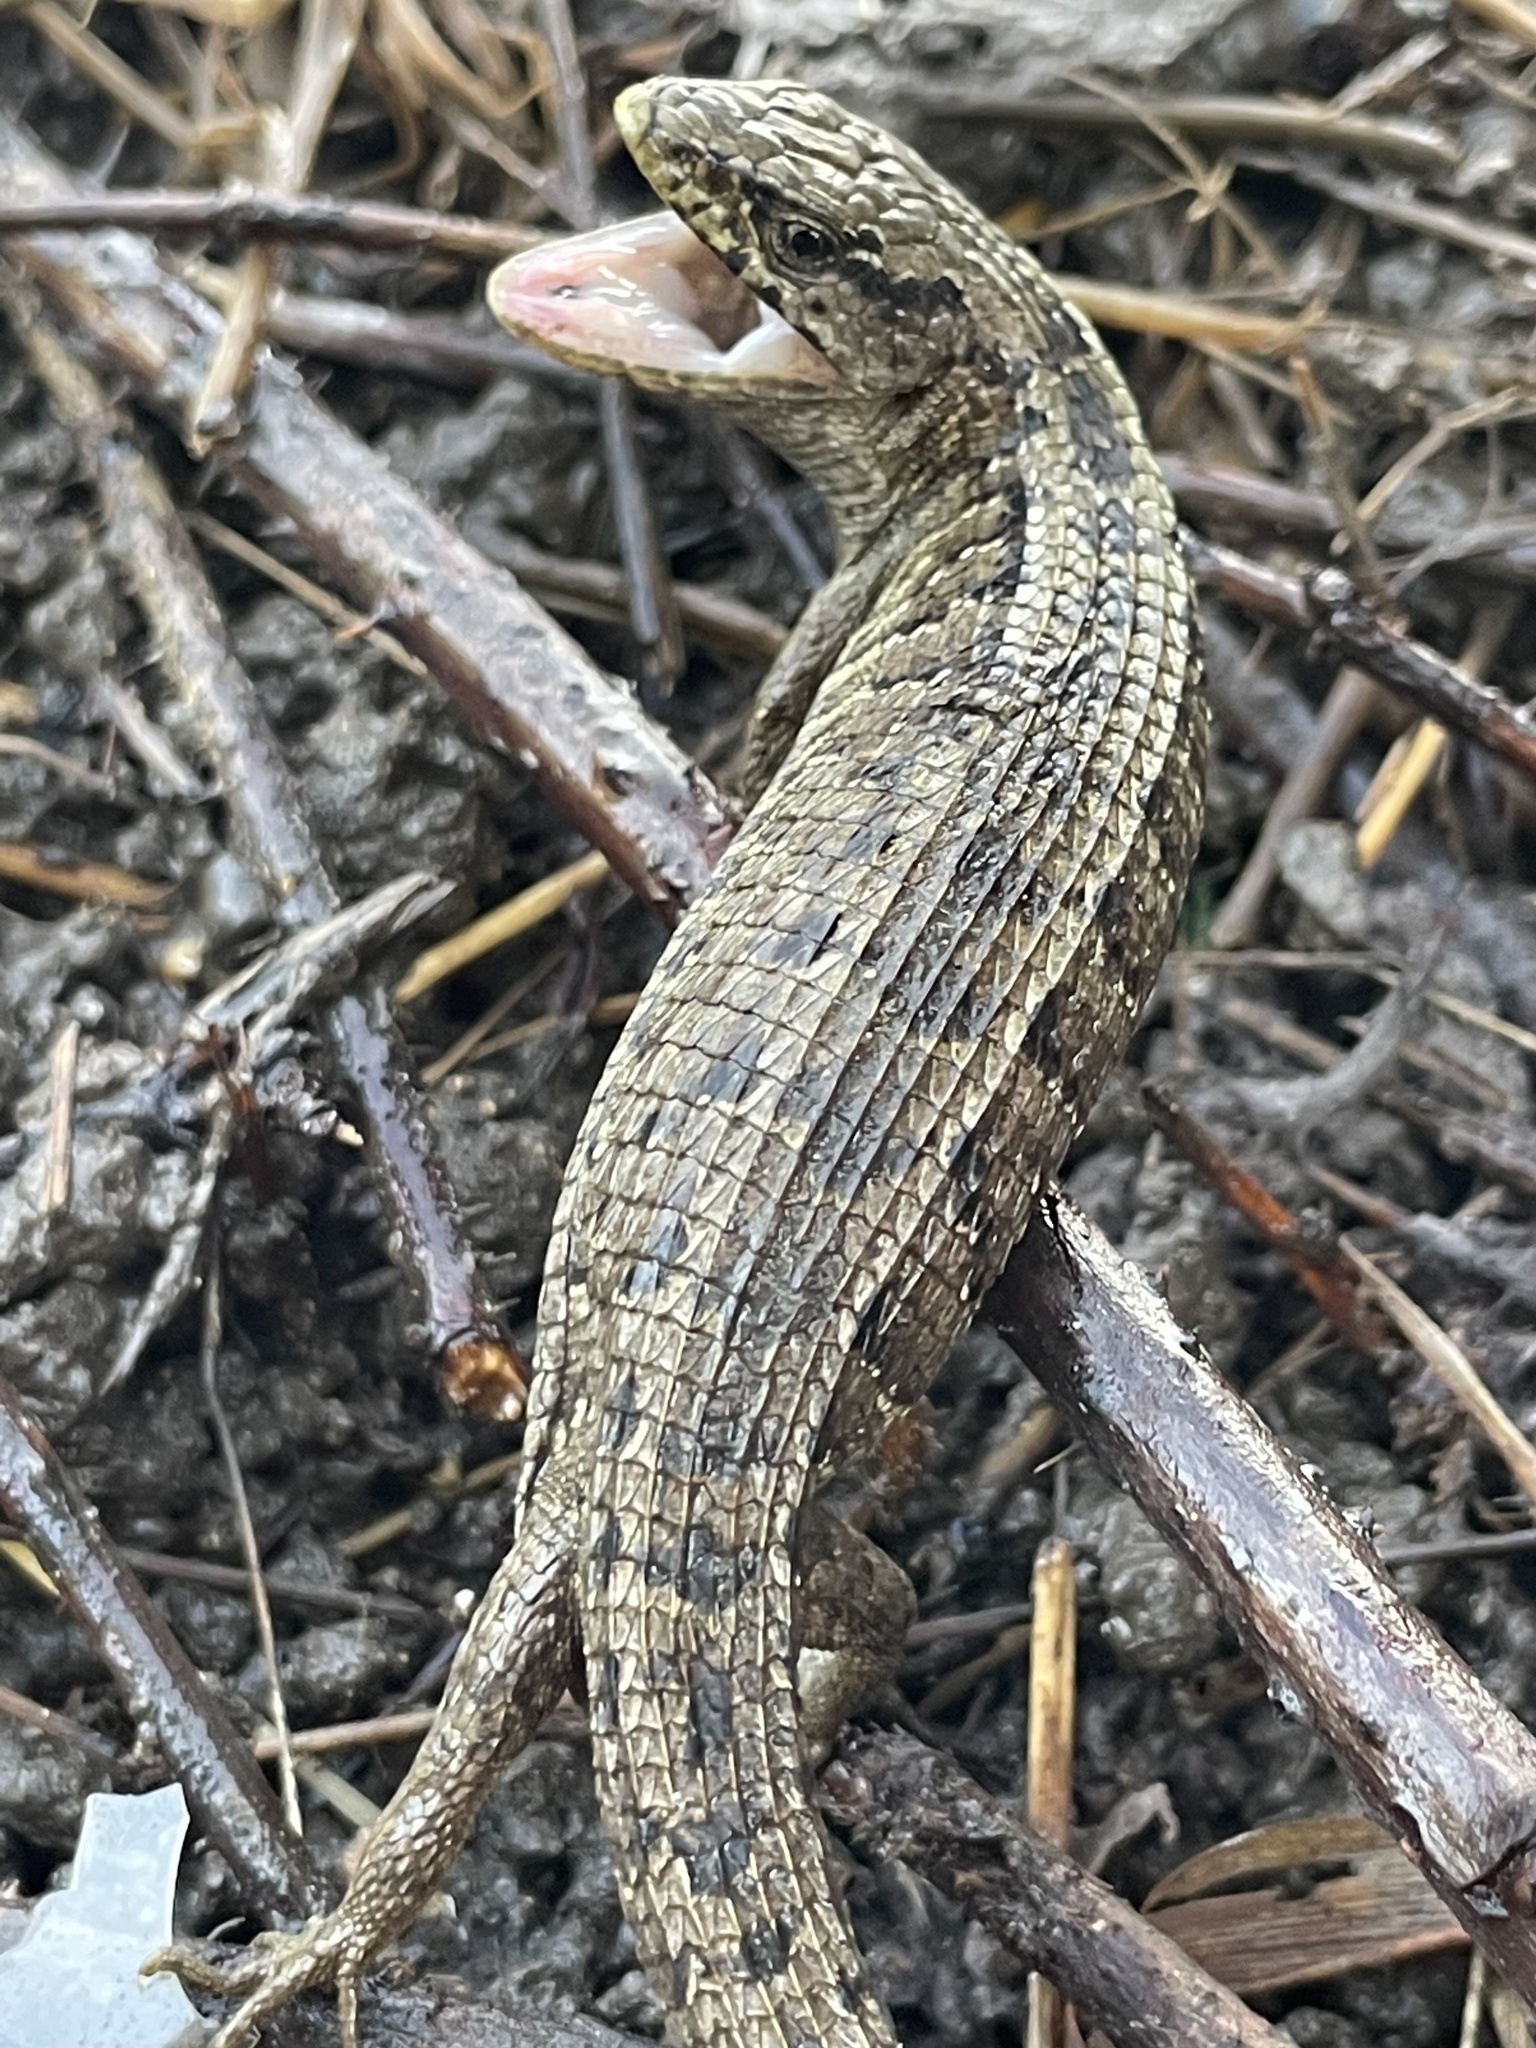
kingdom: Animalia
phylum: Chordata
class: Squamata
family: Anguidae
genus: Elgaria
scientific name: Elgaria coerulea
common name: Northern alligator lizard
